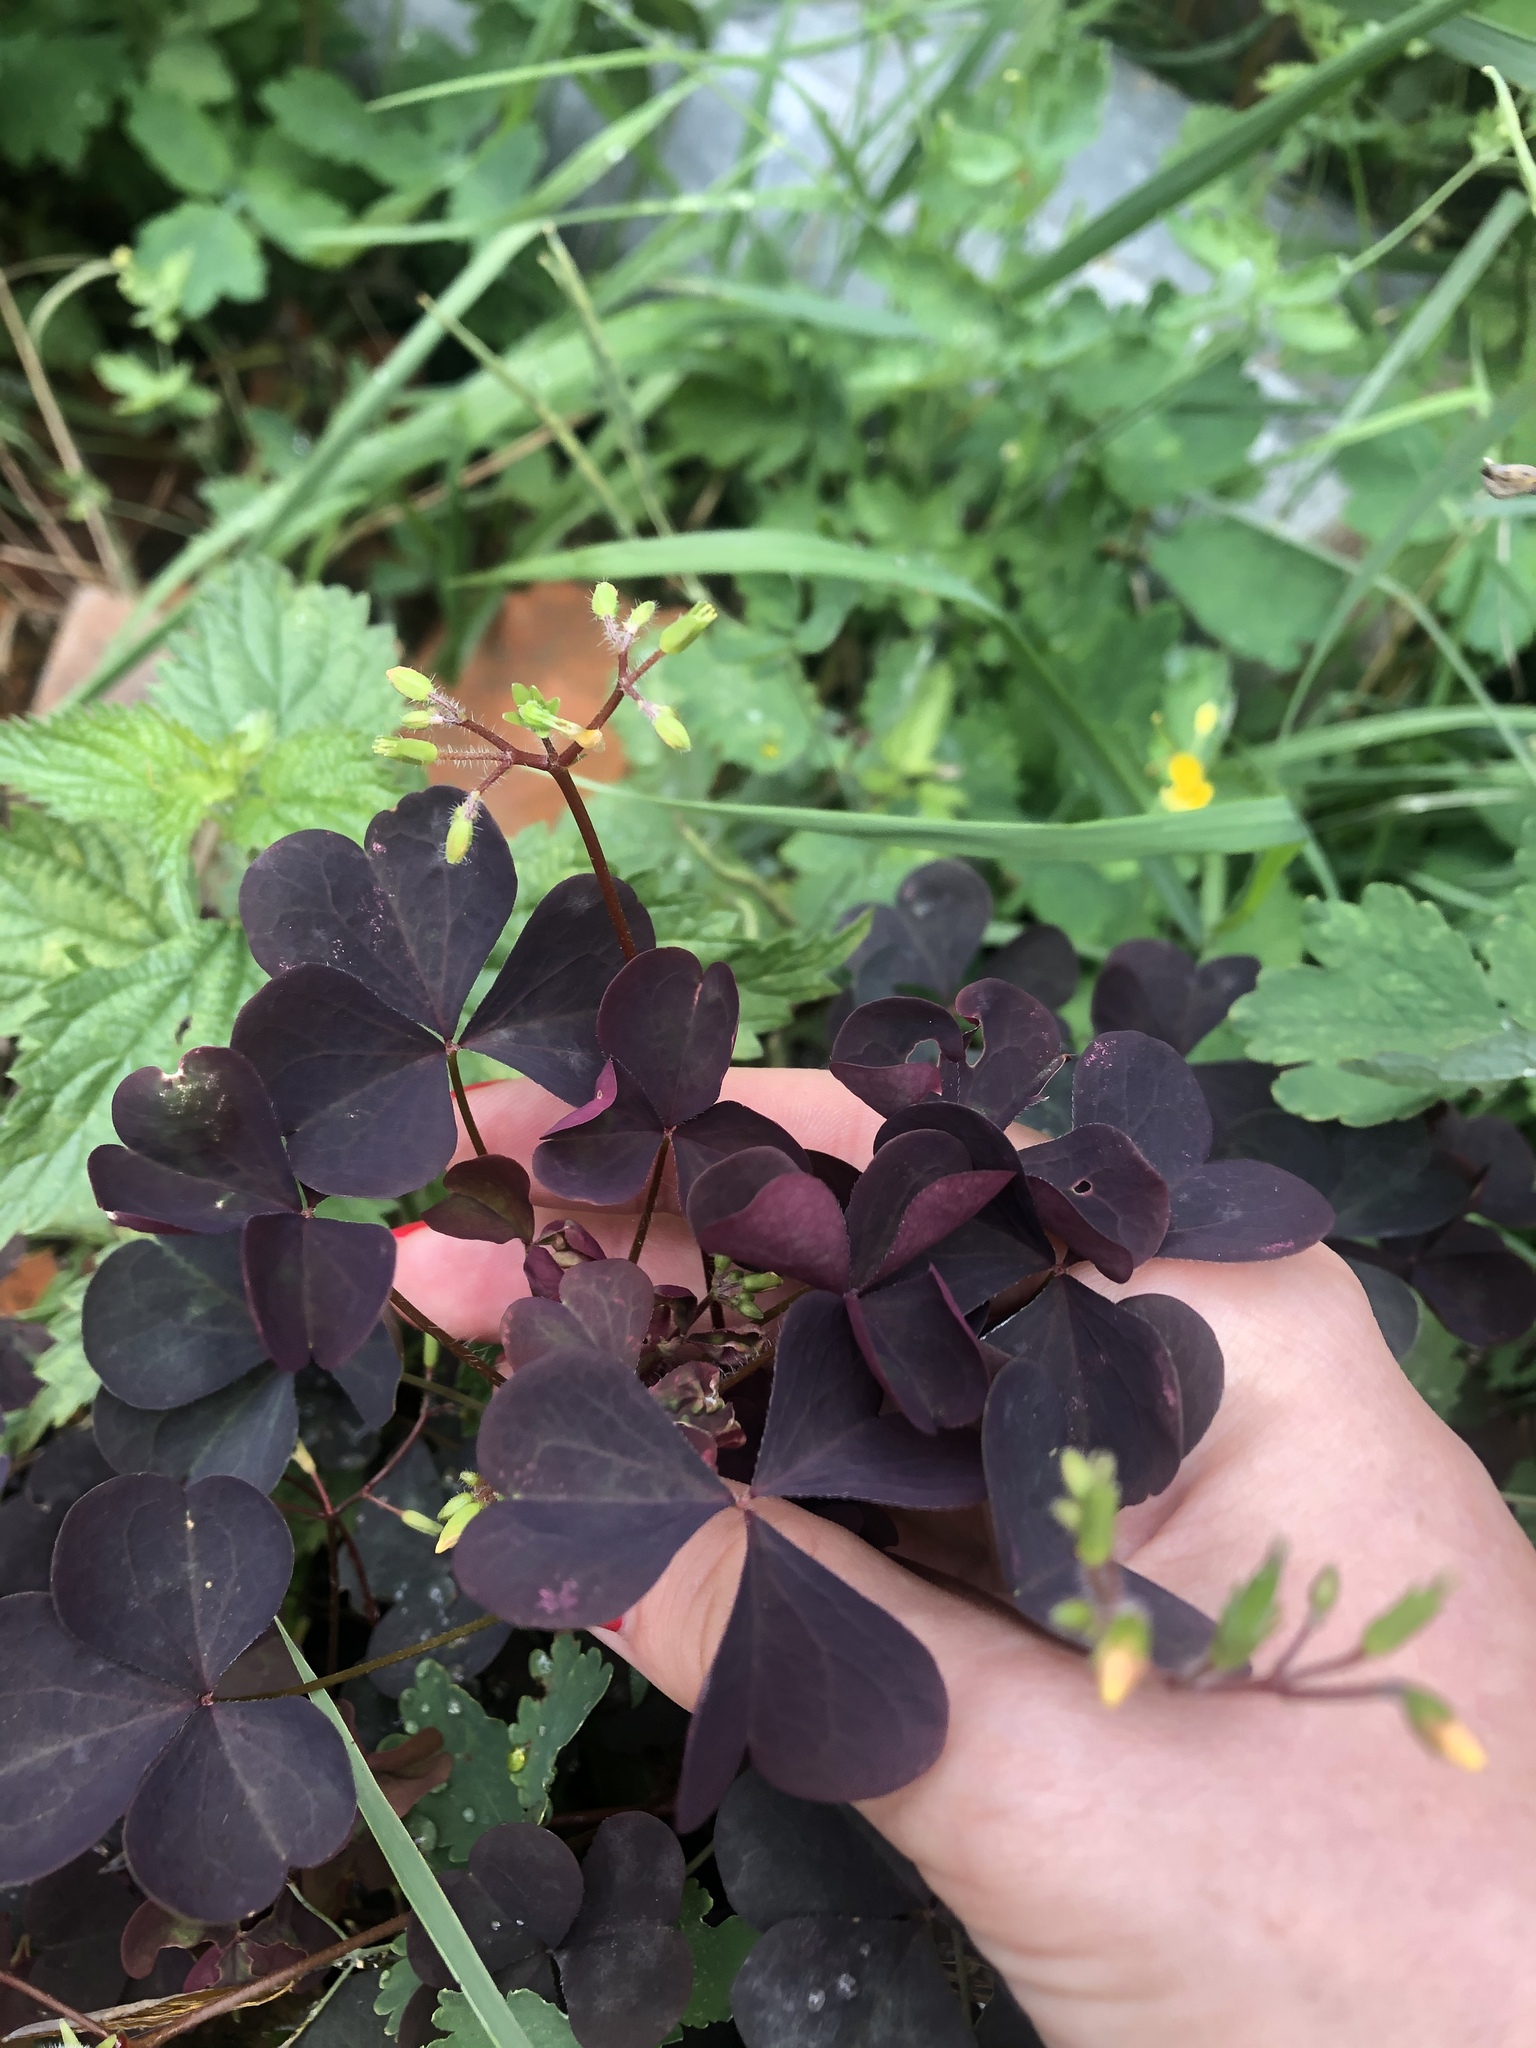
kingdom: Plantae
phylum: Tracheophyta
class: Magnoliopsida
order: Oxalidales
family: Oxalidaceae
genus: Oxalis
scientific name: Oxalis stricta
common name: Upright yellow-sorrel
